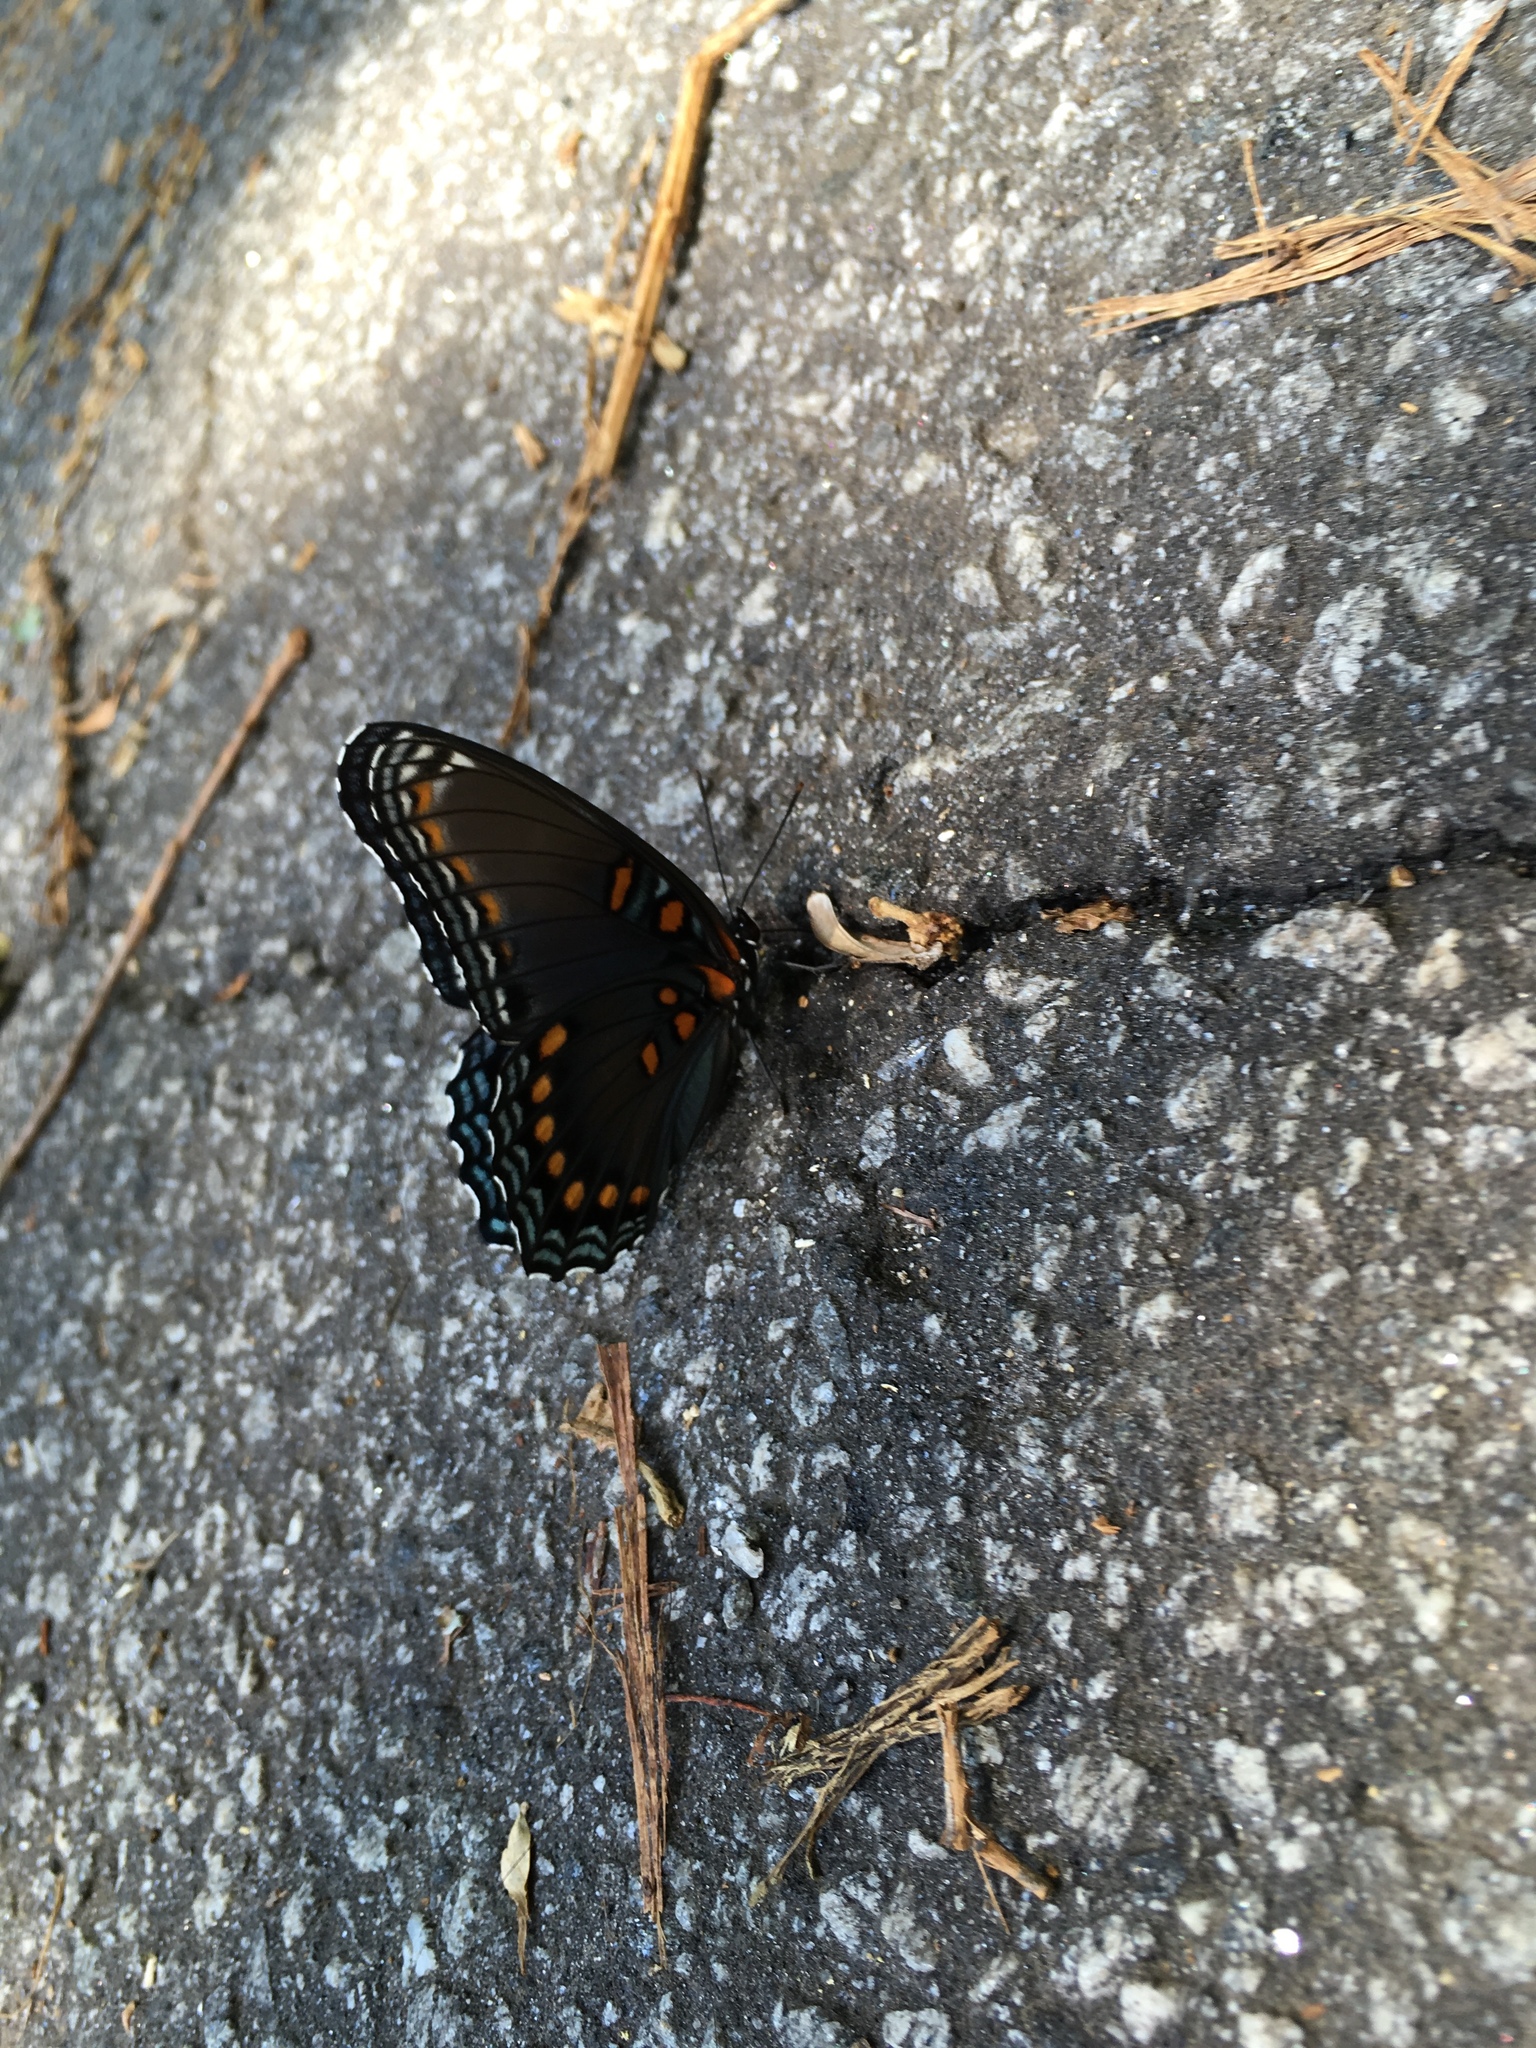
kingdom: Animalia
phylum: Arthropoda
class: Insecta
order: Lepidoptera
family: Nymphalidae
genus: Limenitis
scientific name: Limenitis astyanax
